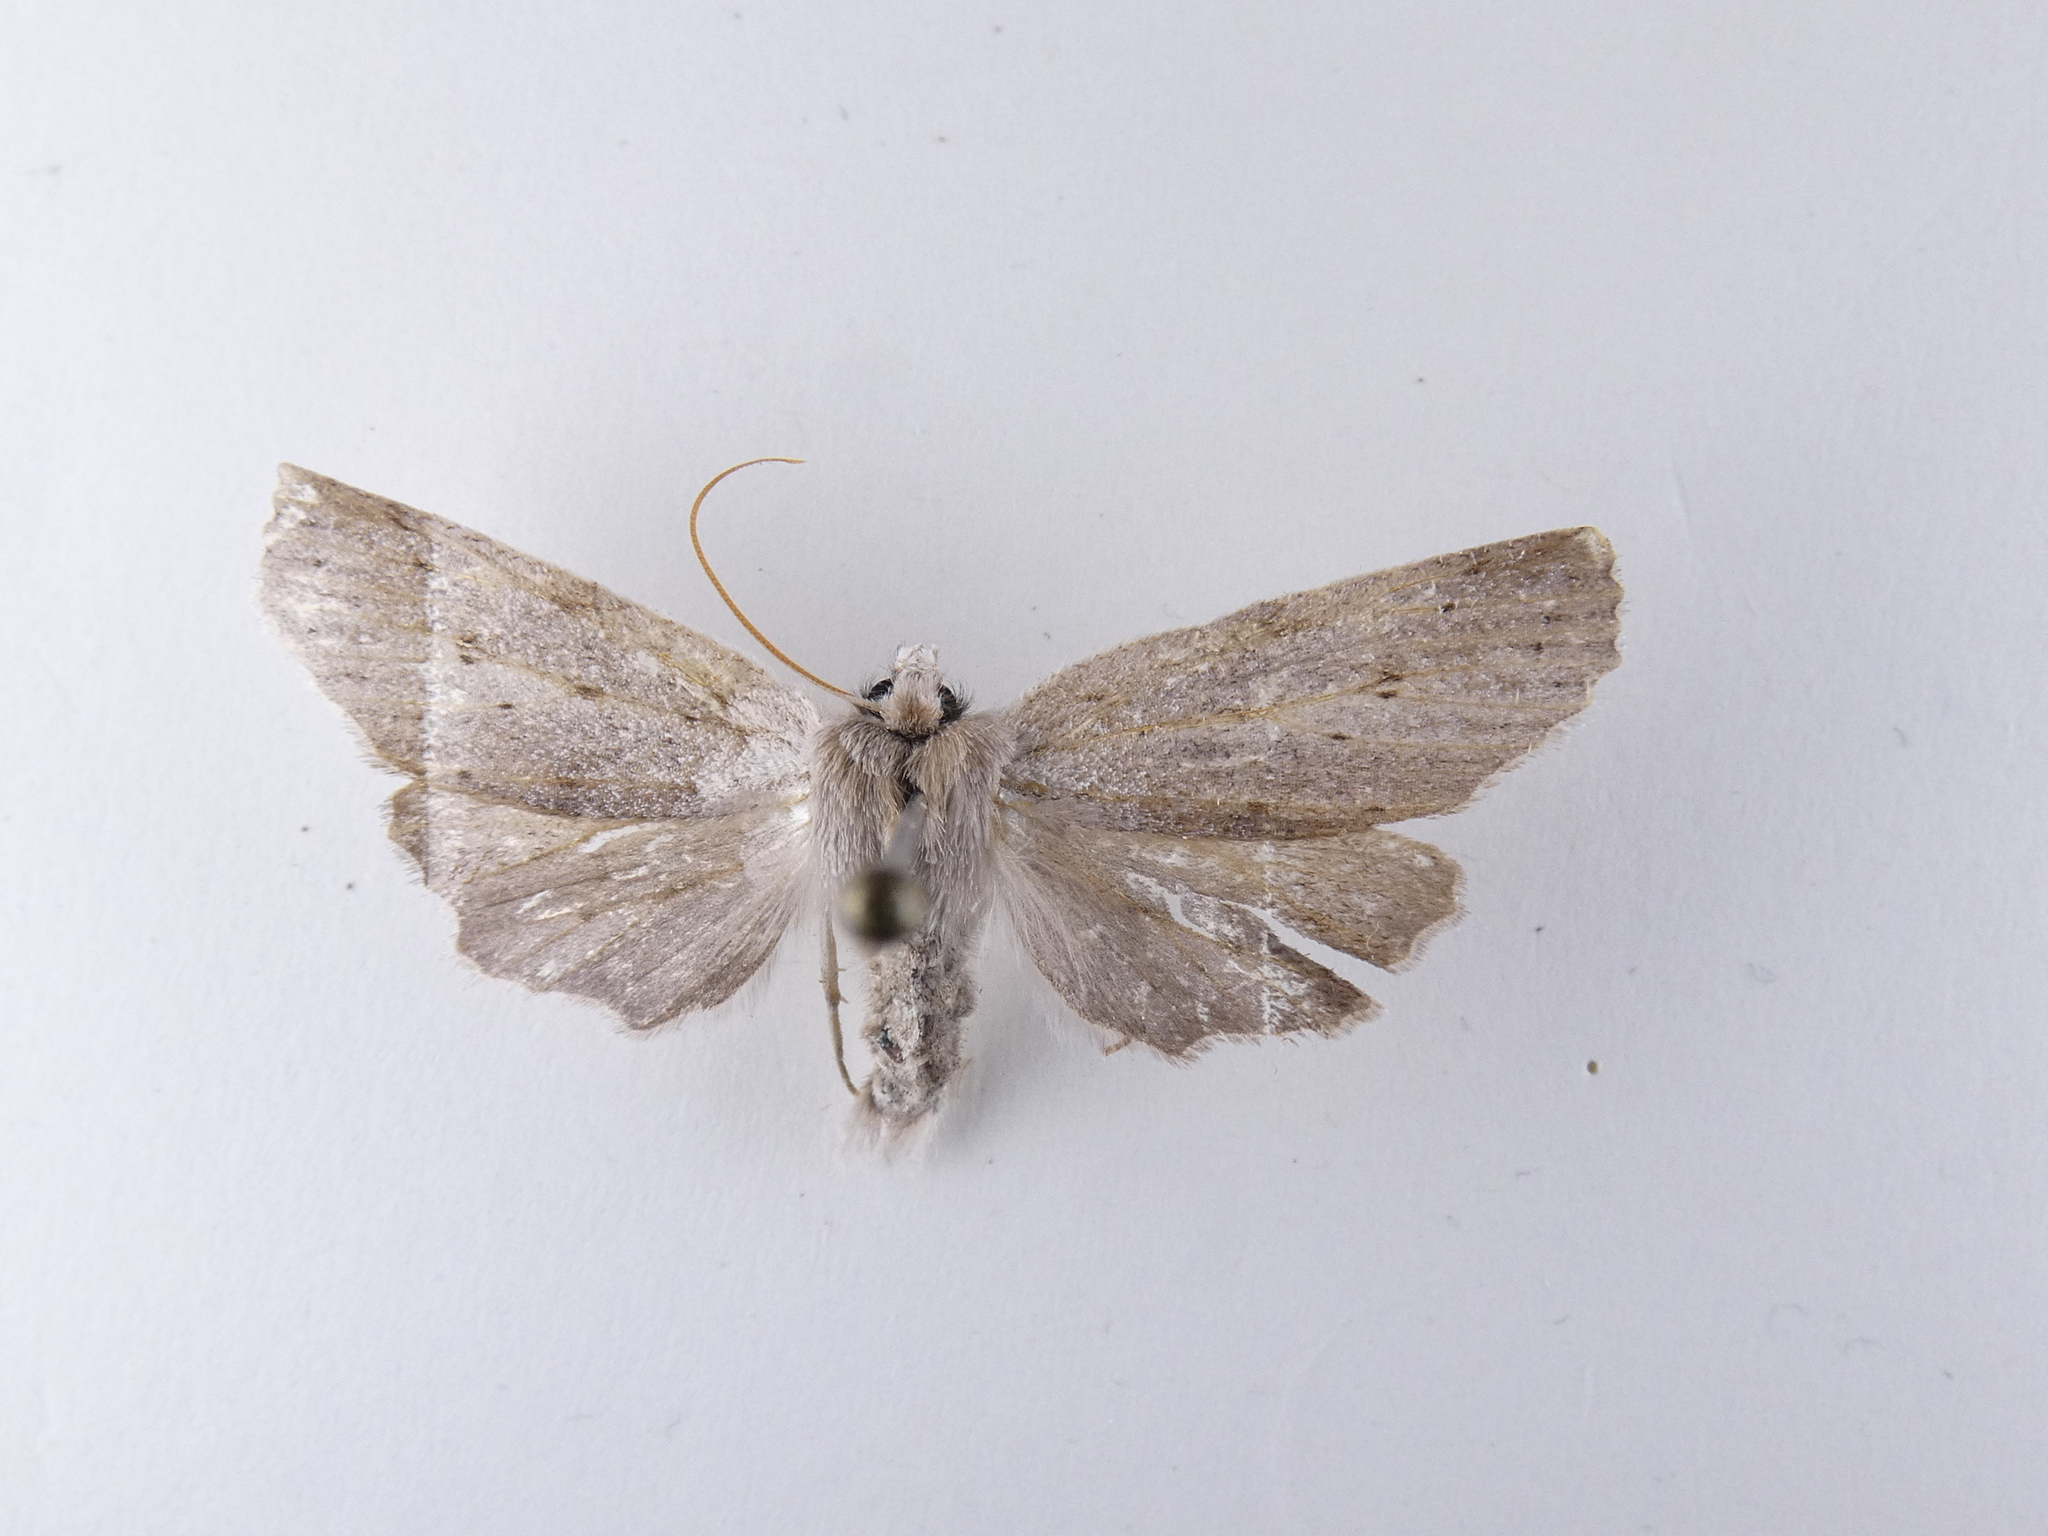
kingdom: Animalia
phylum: Arthropoda
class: Insecta
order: Lepidoptera
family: Geometridae
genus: Declana
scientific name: Declana leptomera
